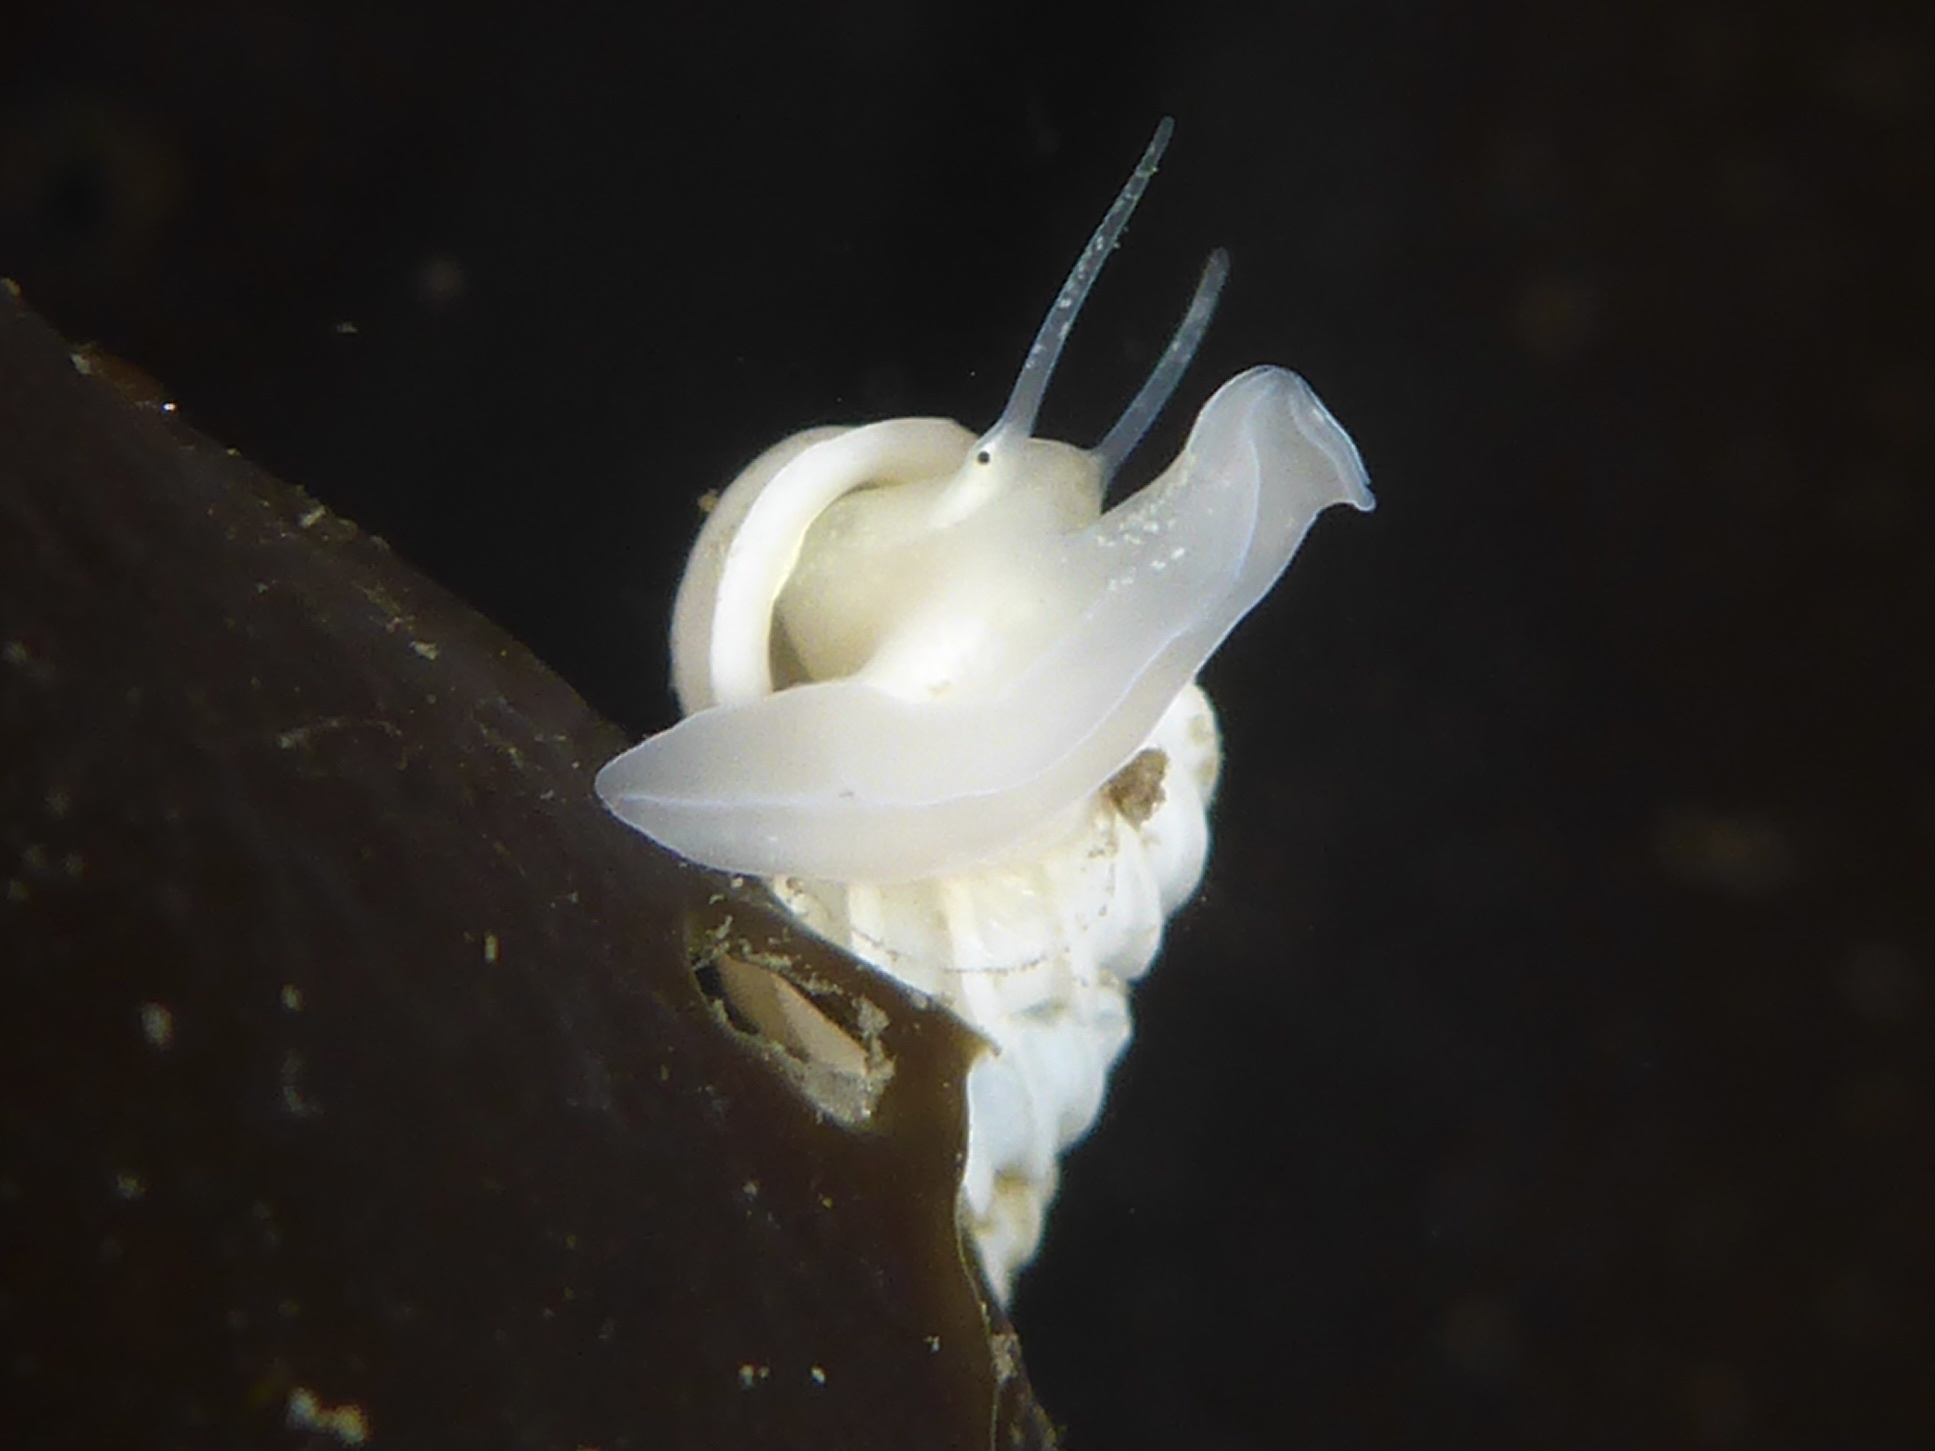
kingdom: Animalia
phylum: Mollusca
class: Gastropoda
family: Epitoniidae
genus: Epitonium
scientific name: Epitonium tinctum
